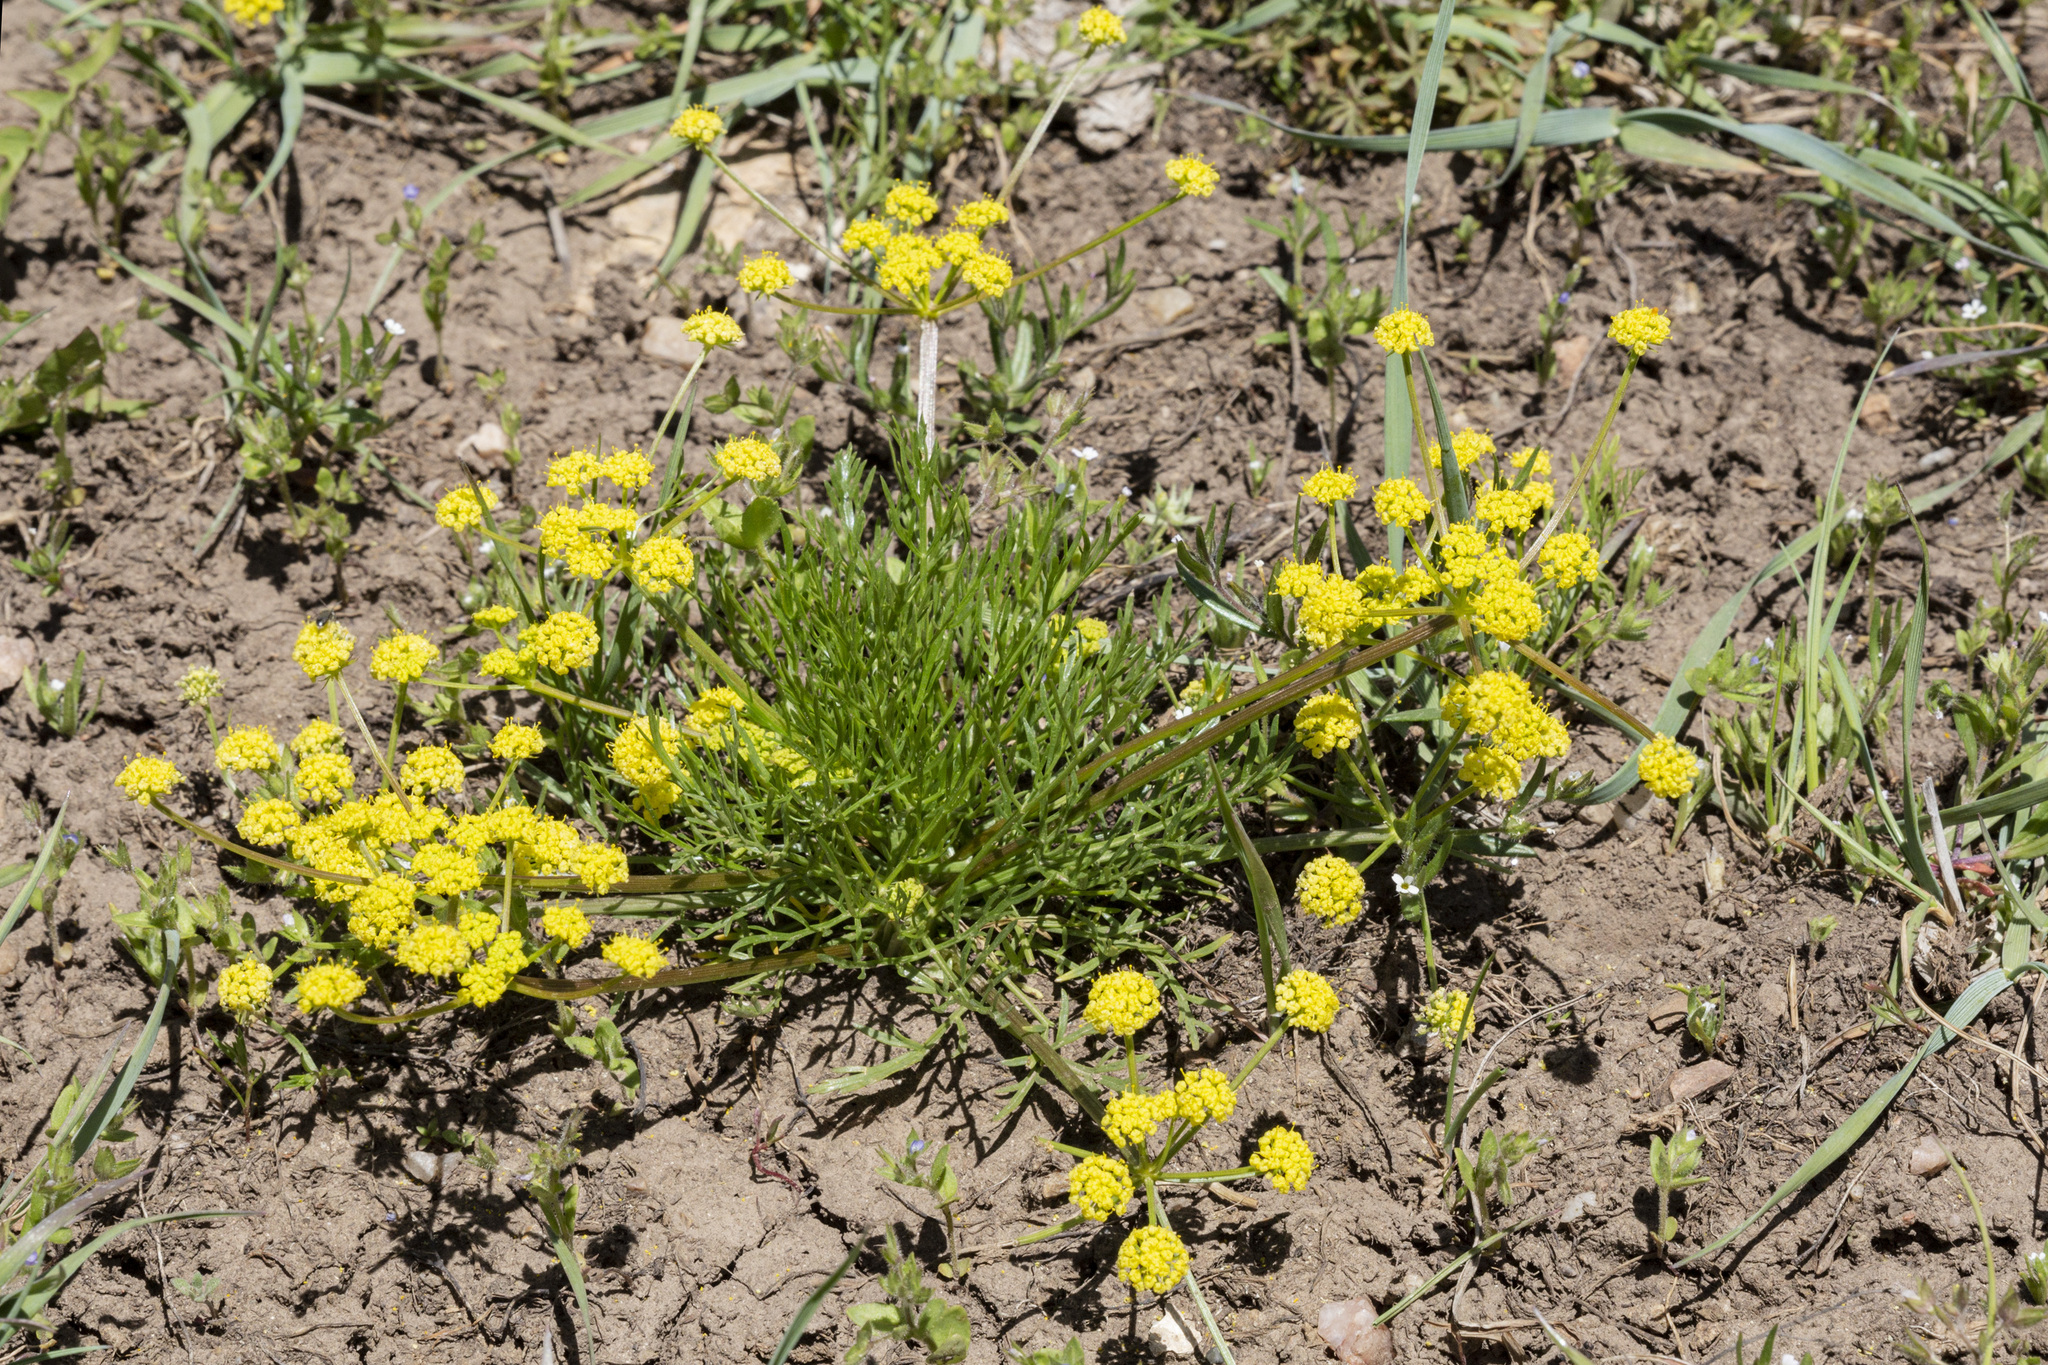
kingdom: Plantae
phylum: Tracheophyta
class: Magnoliopsida
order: Apiales
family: Apiaceae
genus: Lomatium
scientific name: Lomatium bicolor
